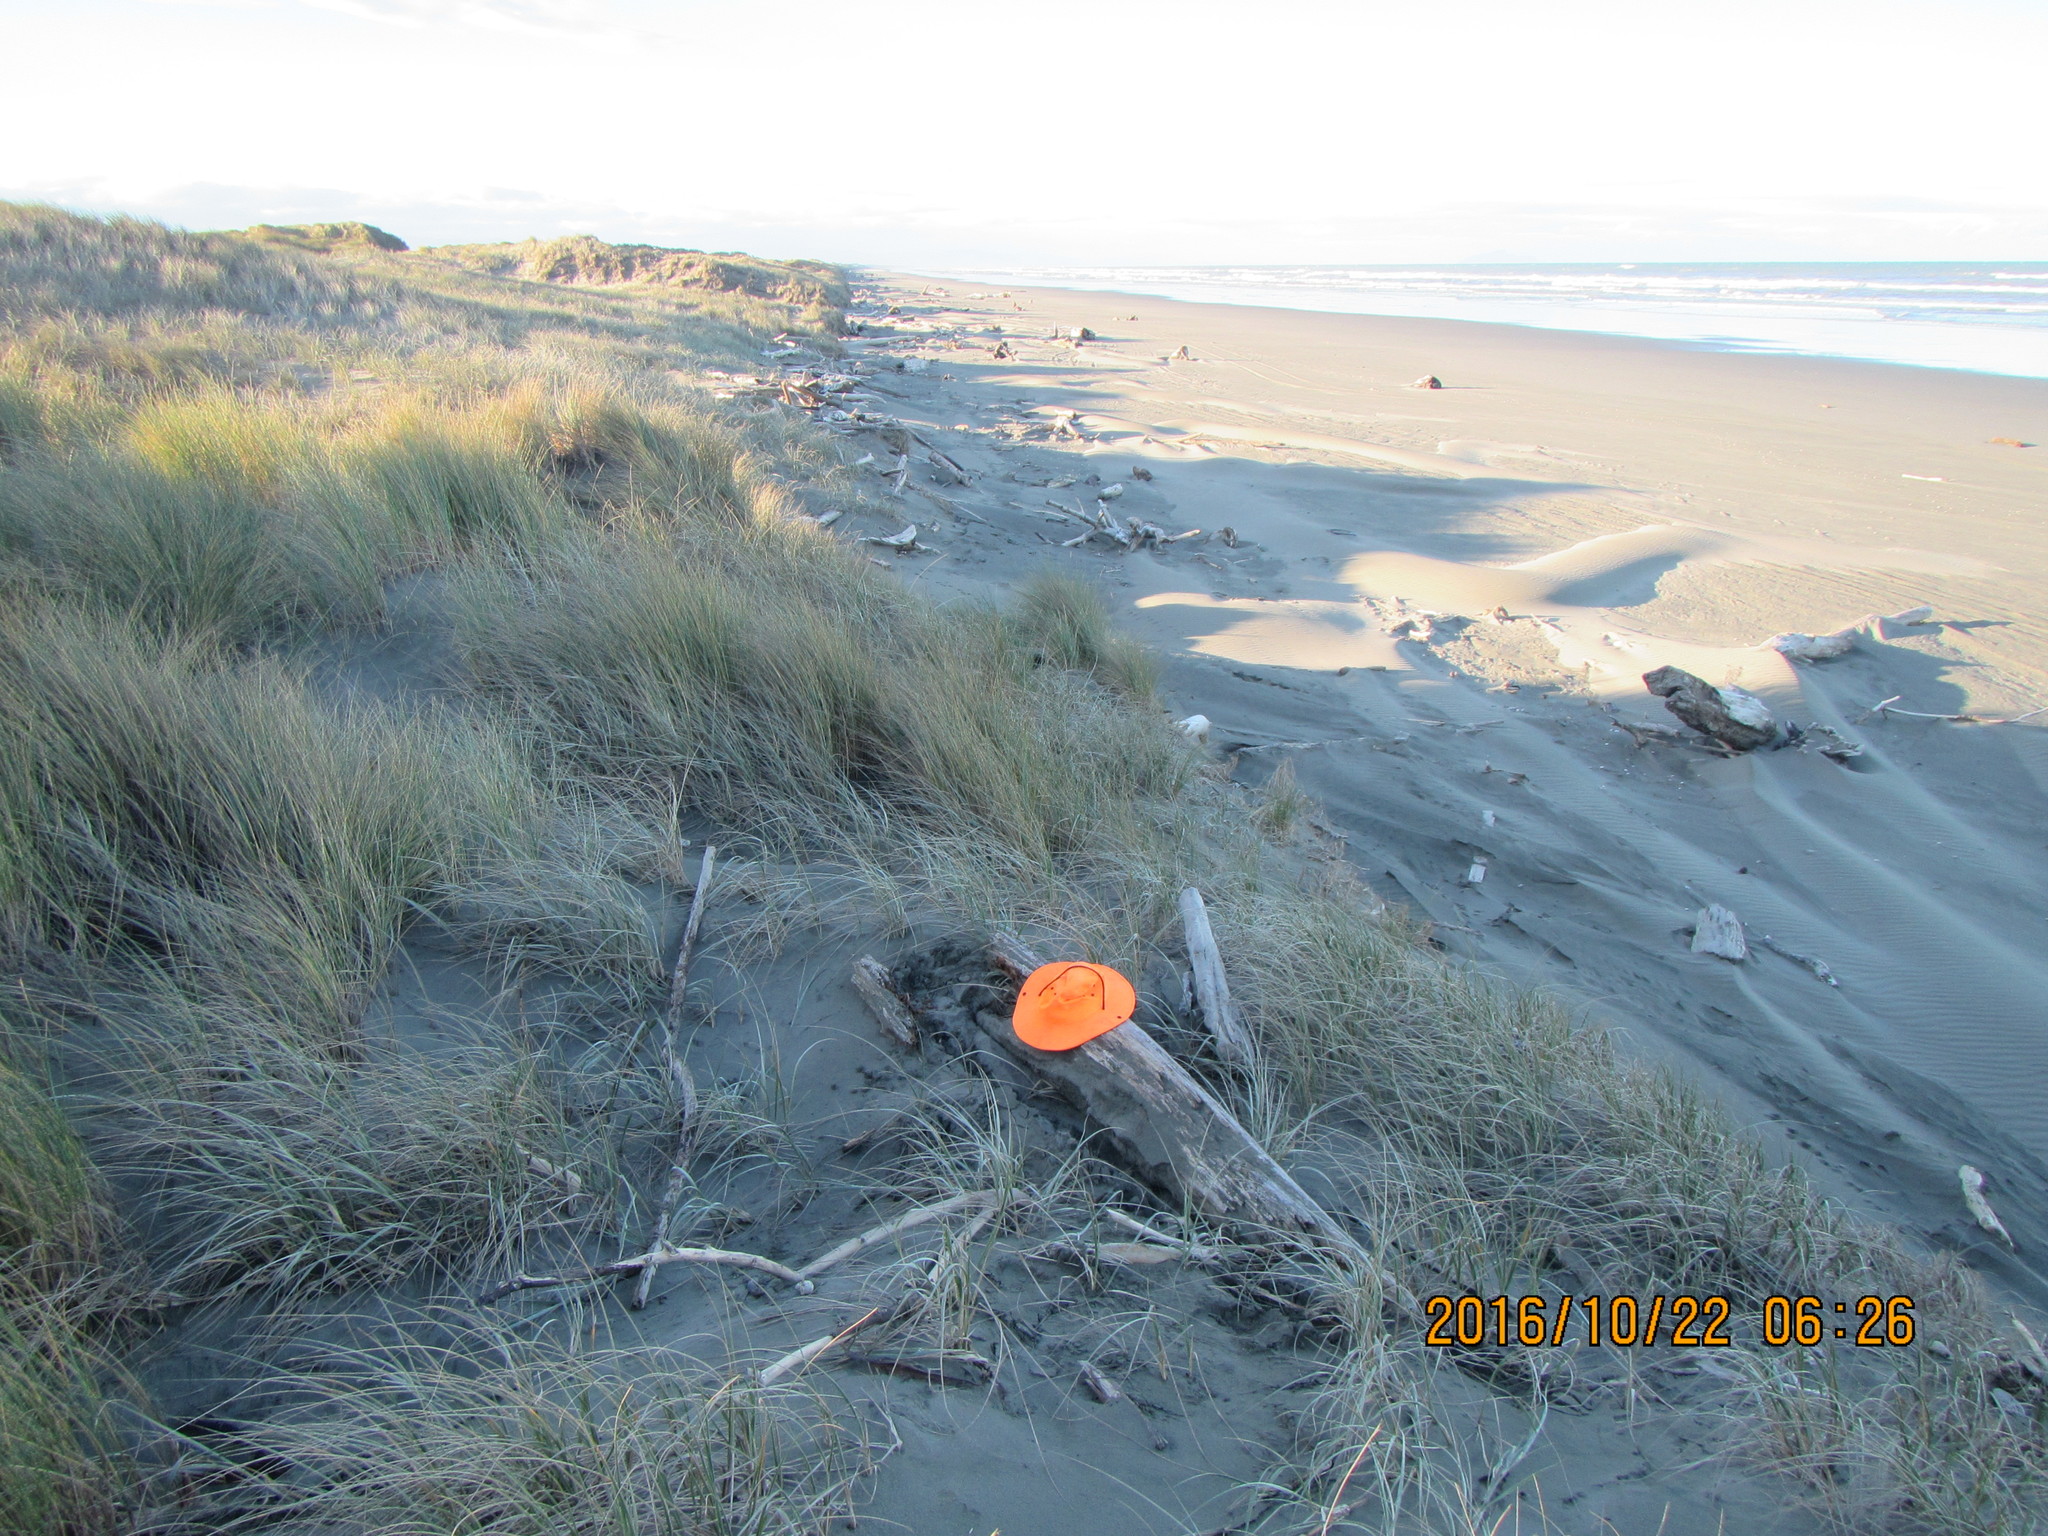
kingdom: Animalia
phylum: Arthropoda
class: Insecta
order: Dermaptera
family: Anisolabididae
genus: Anisolabis
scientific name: Anisolabis littorea
